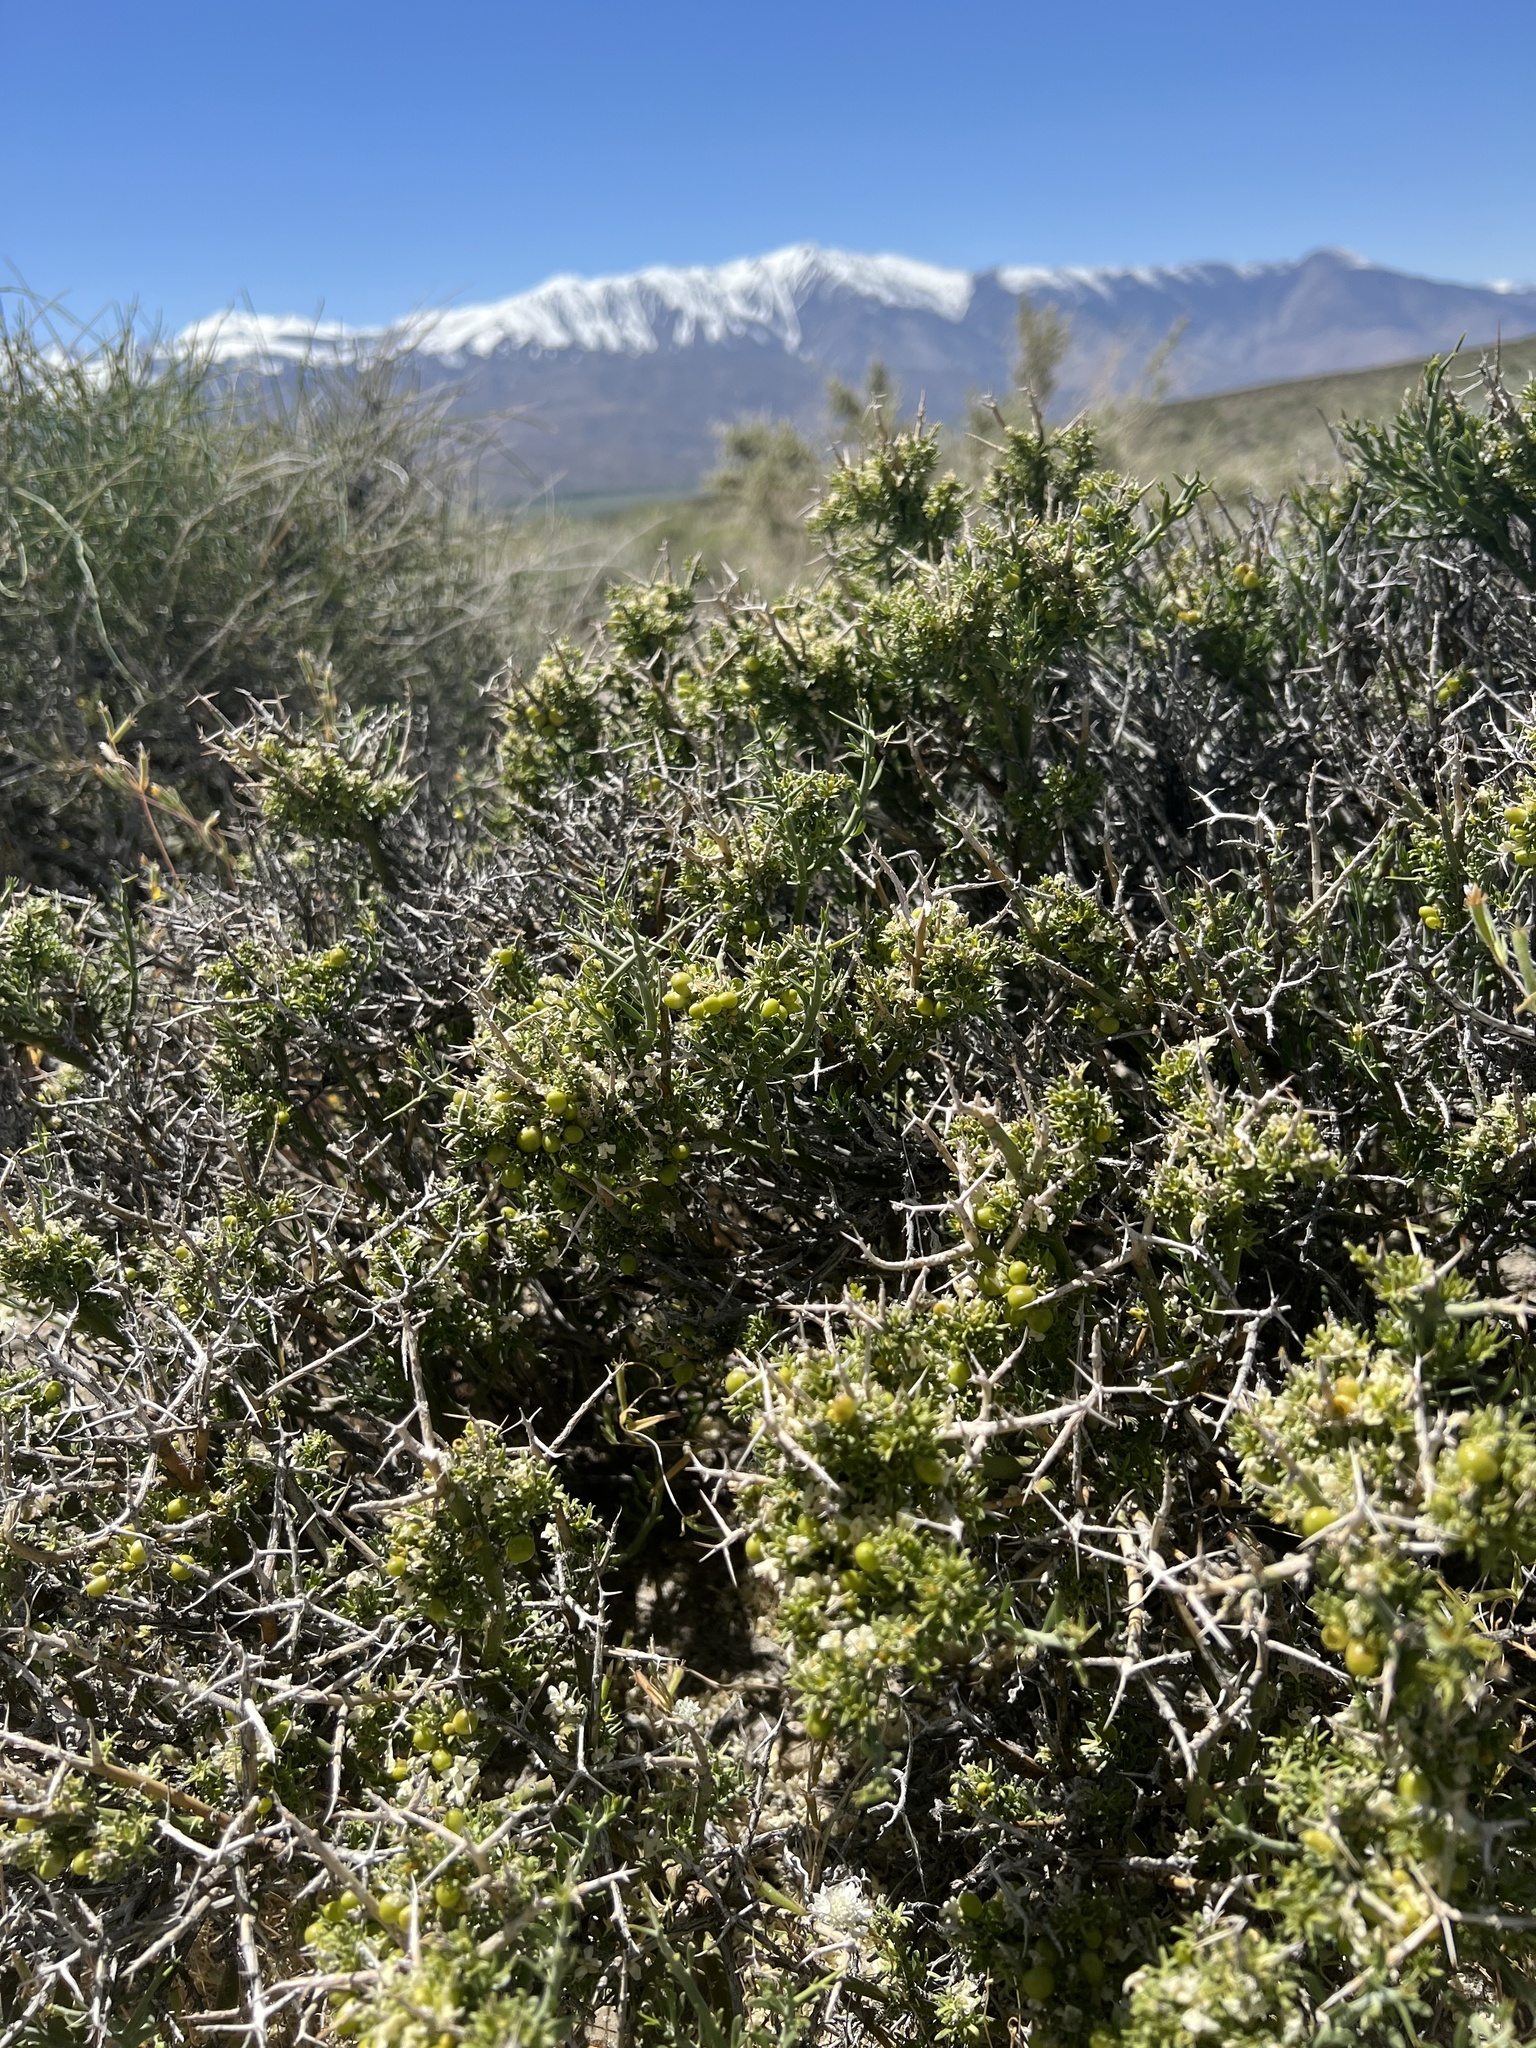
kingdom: Plantae
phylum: Tracheophyta
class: Magnoliopsida
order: Lamiales
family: Oleaceae
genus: Menodora
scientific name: Menodora spinescens
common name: Spiny menodora
